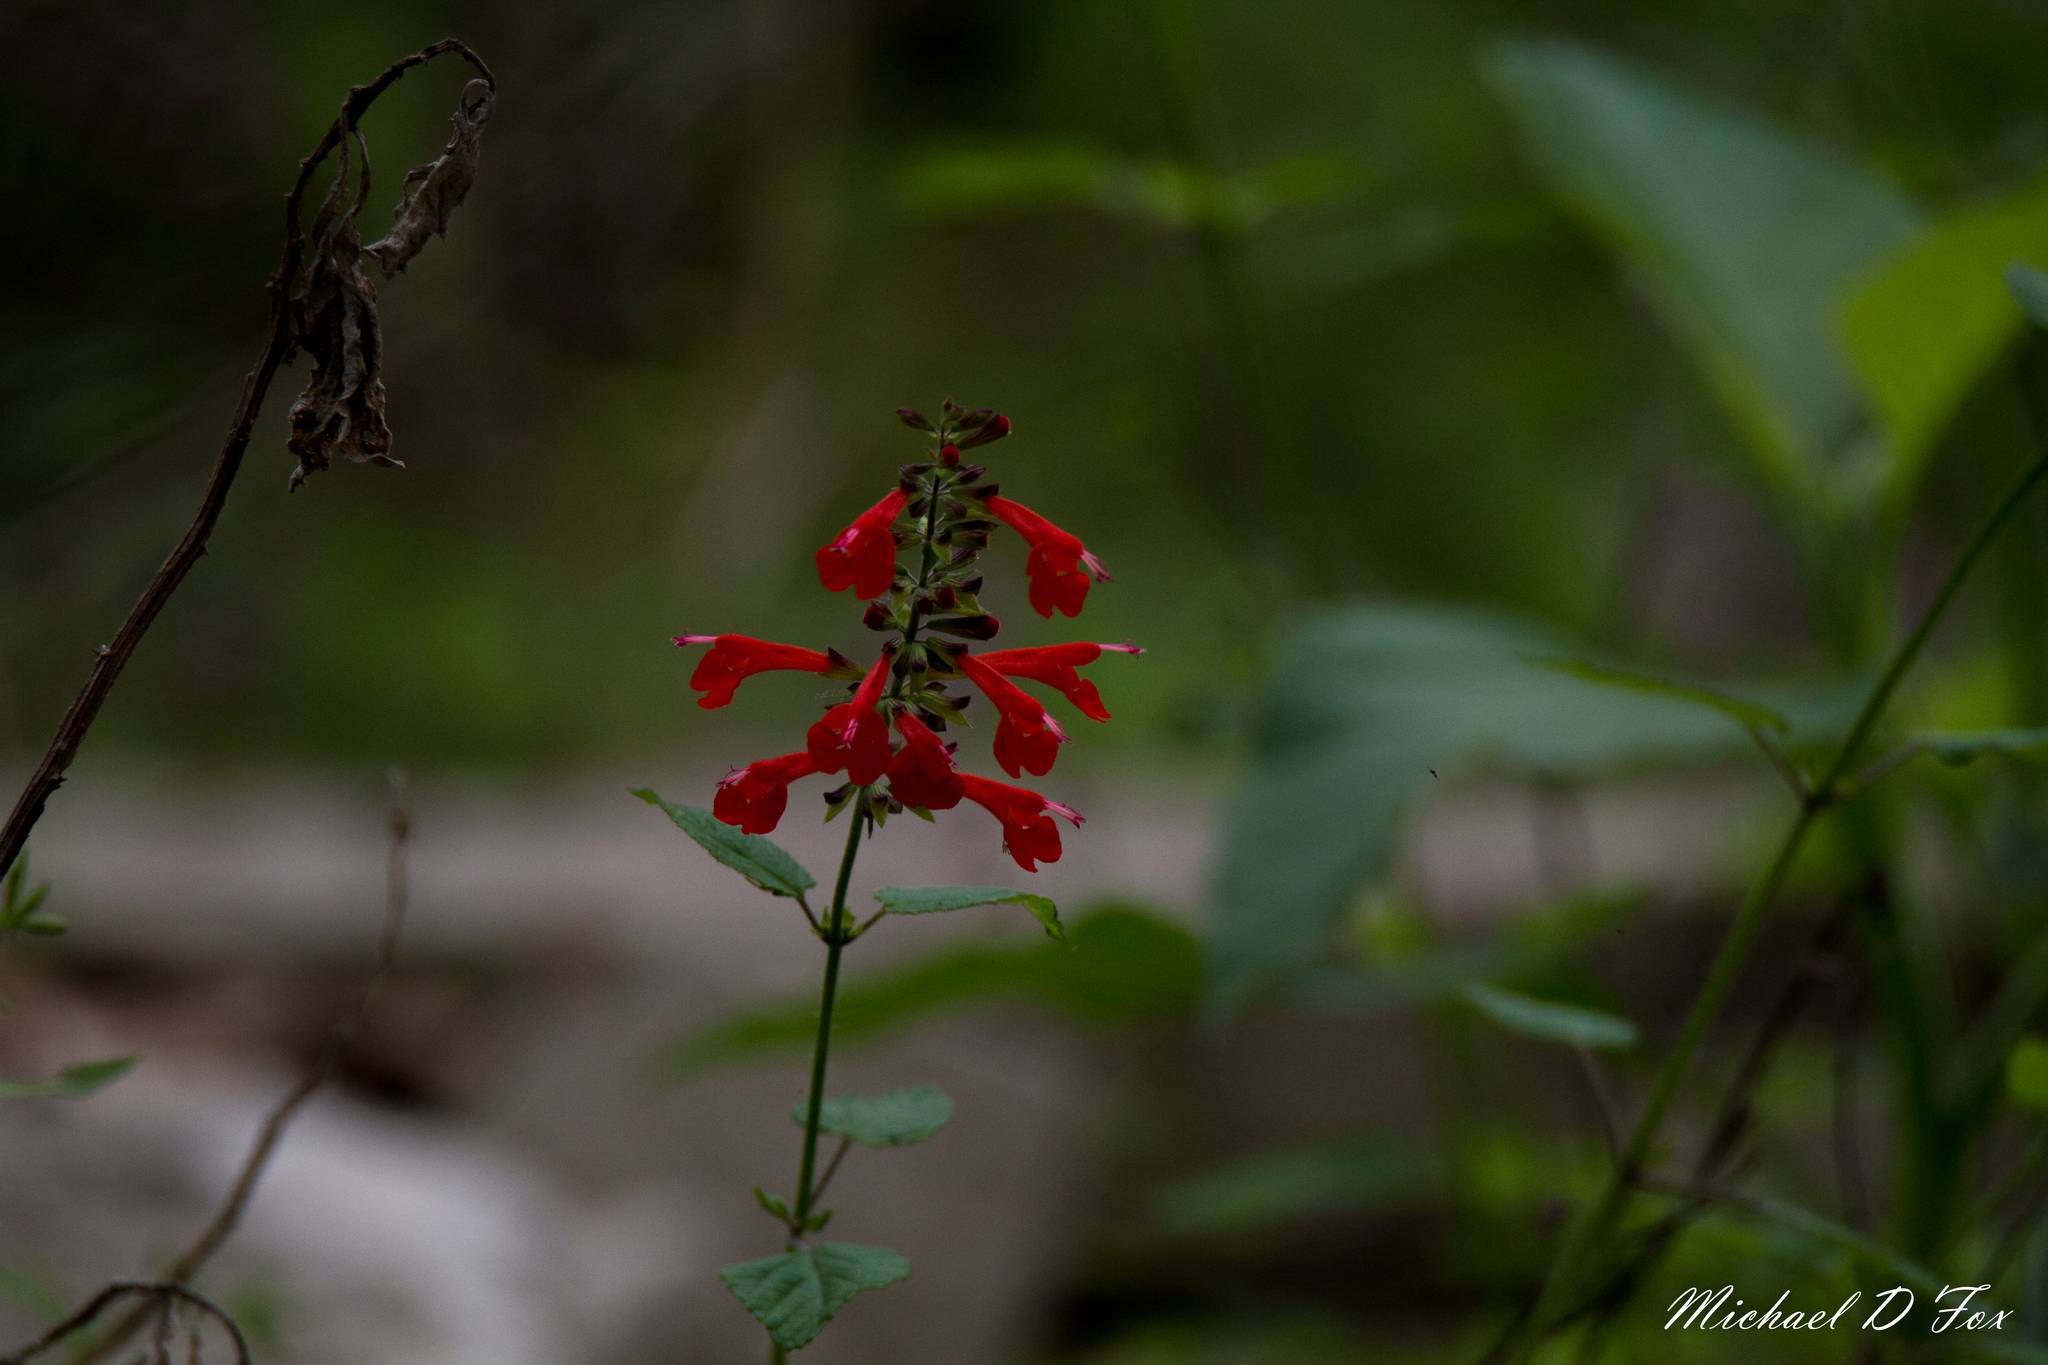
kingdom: Plantae
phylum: Tracheophyta
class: Magnoliopsida
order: Lamiales
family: Lamiaceae
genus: Salvia
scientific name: Salvia coccinea
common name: Blood sage
